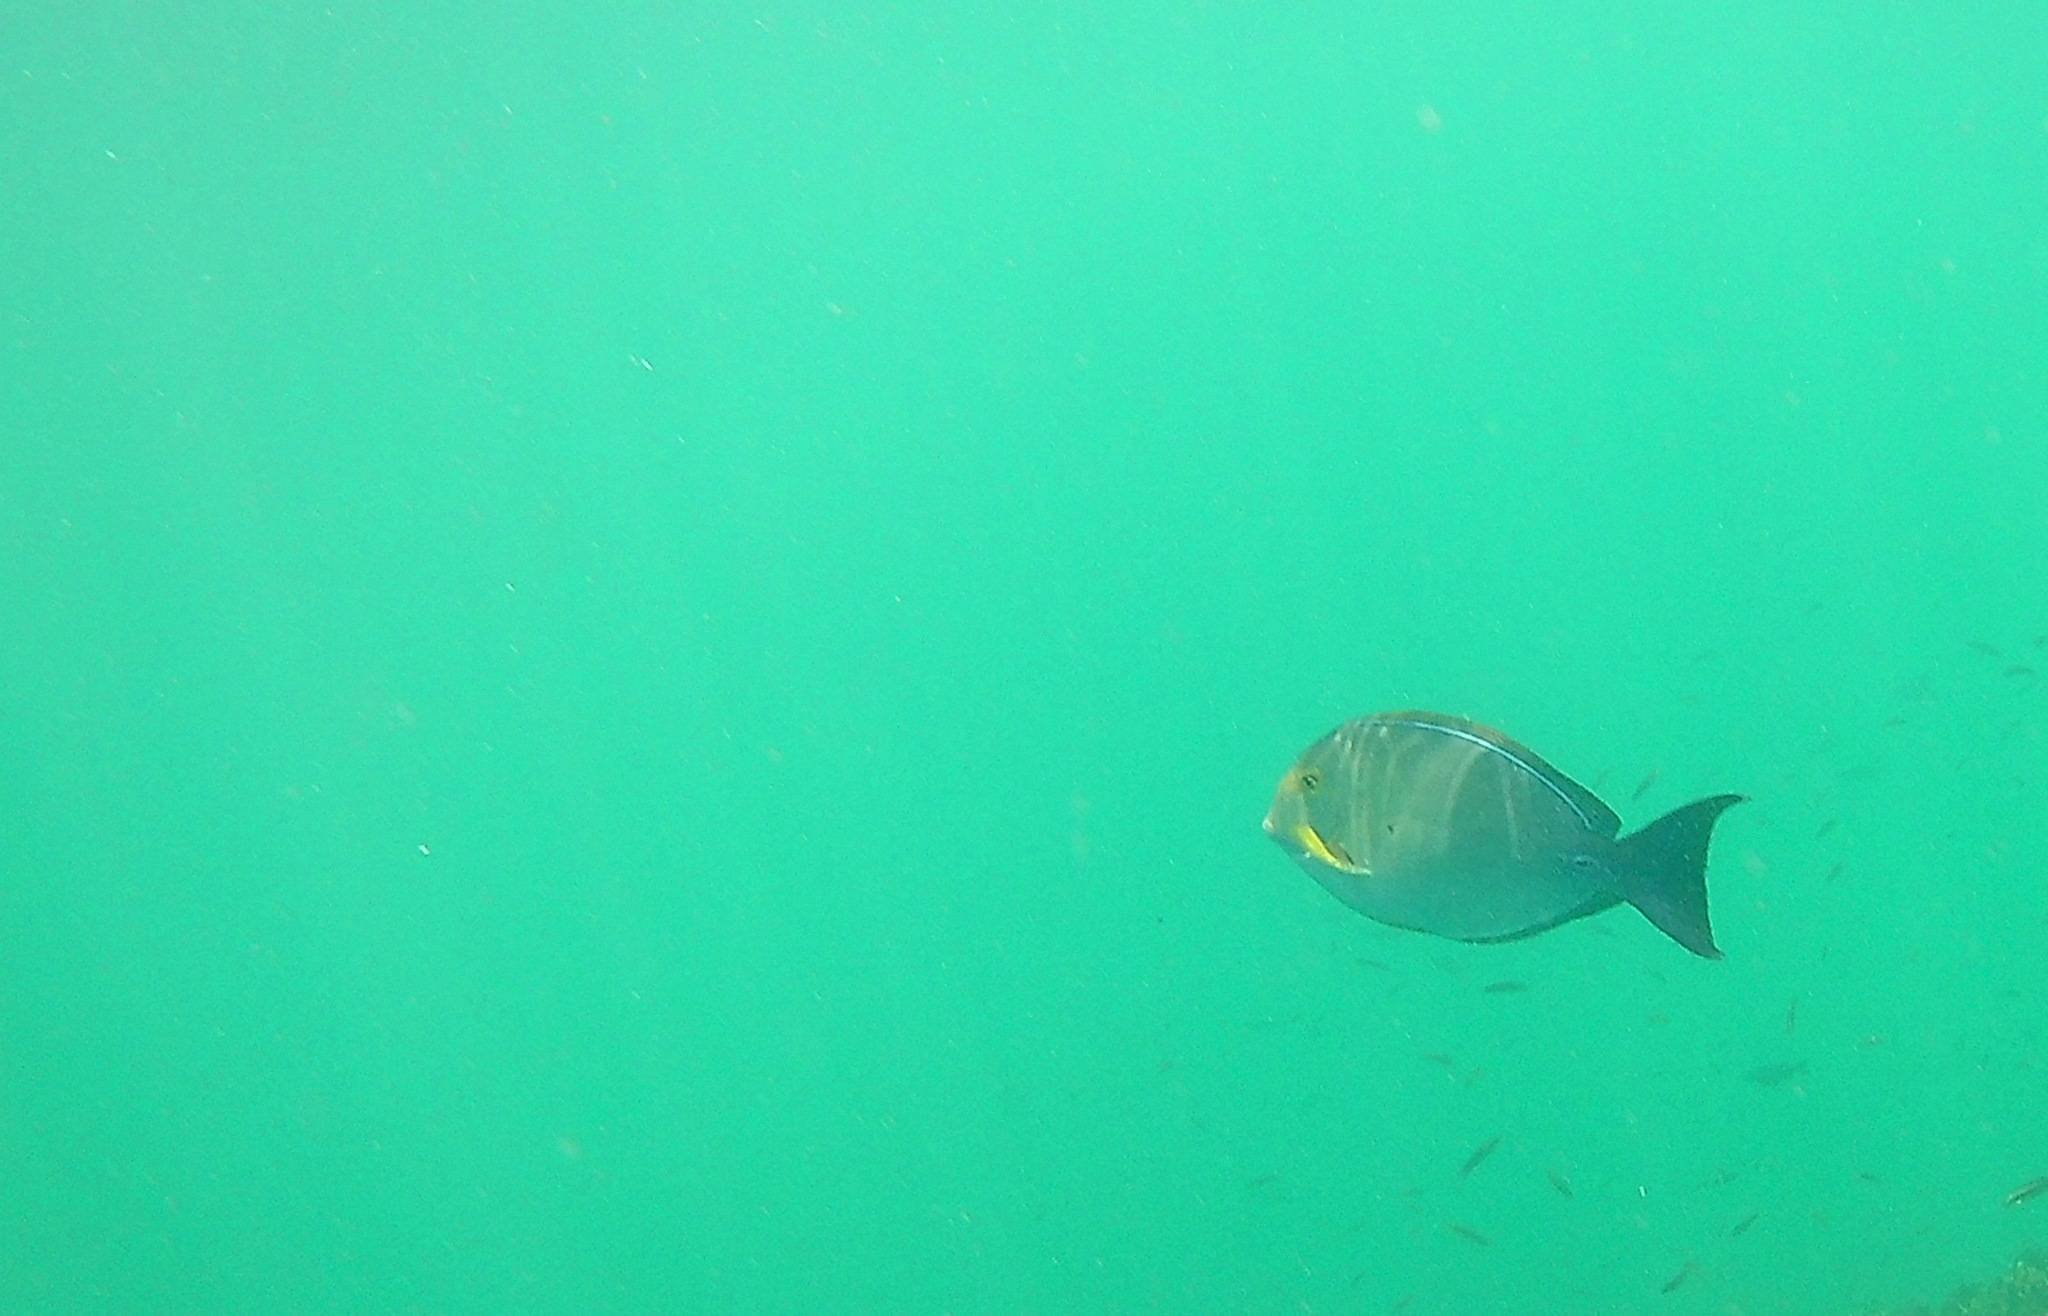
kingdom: Animalia
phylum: Chordata
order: Perciformes
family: Acanthuridae
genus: Acanthurus
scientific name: Acanthurus xanthopterus
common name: Cuvier's surgeonfish
